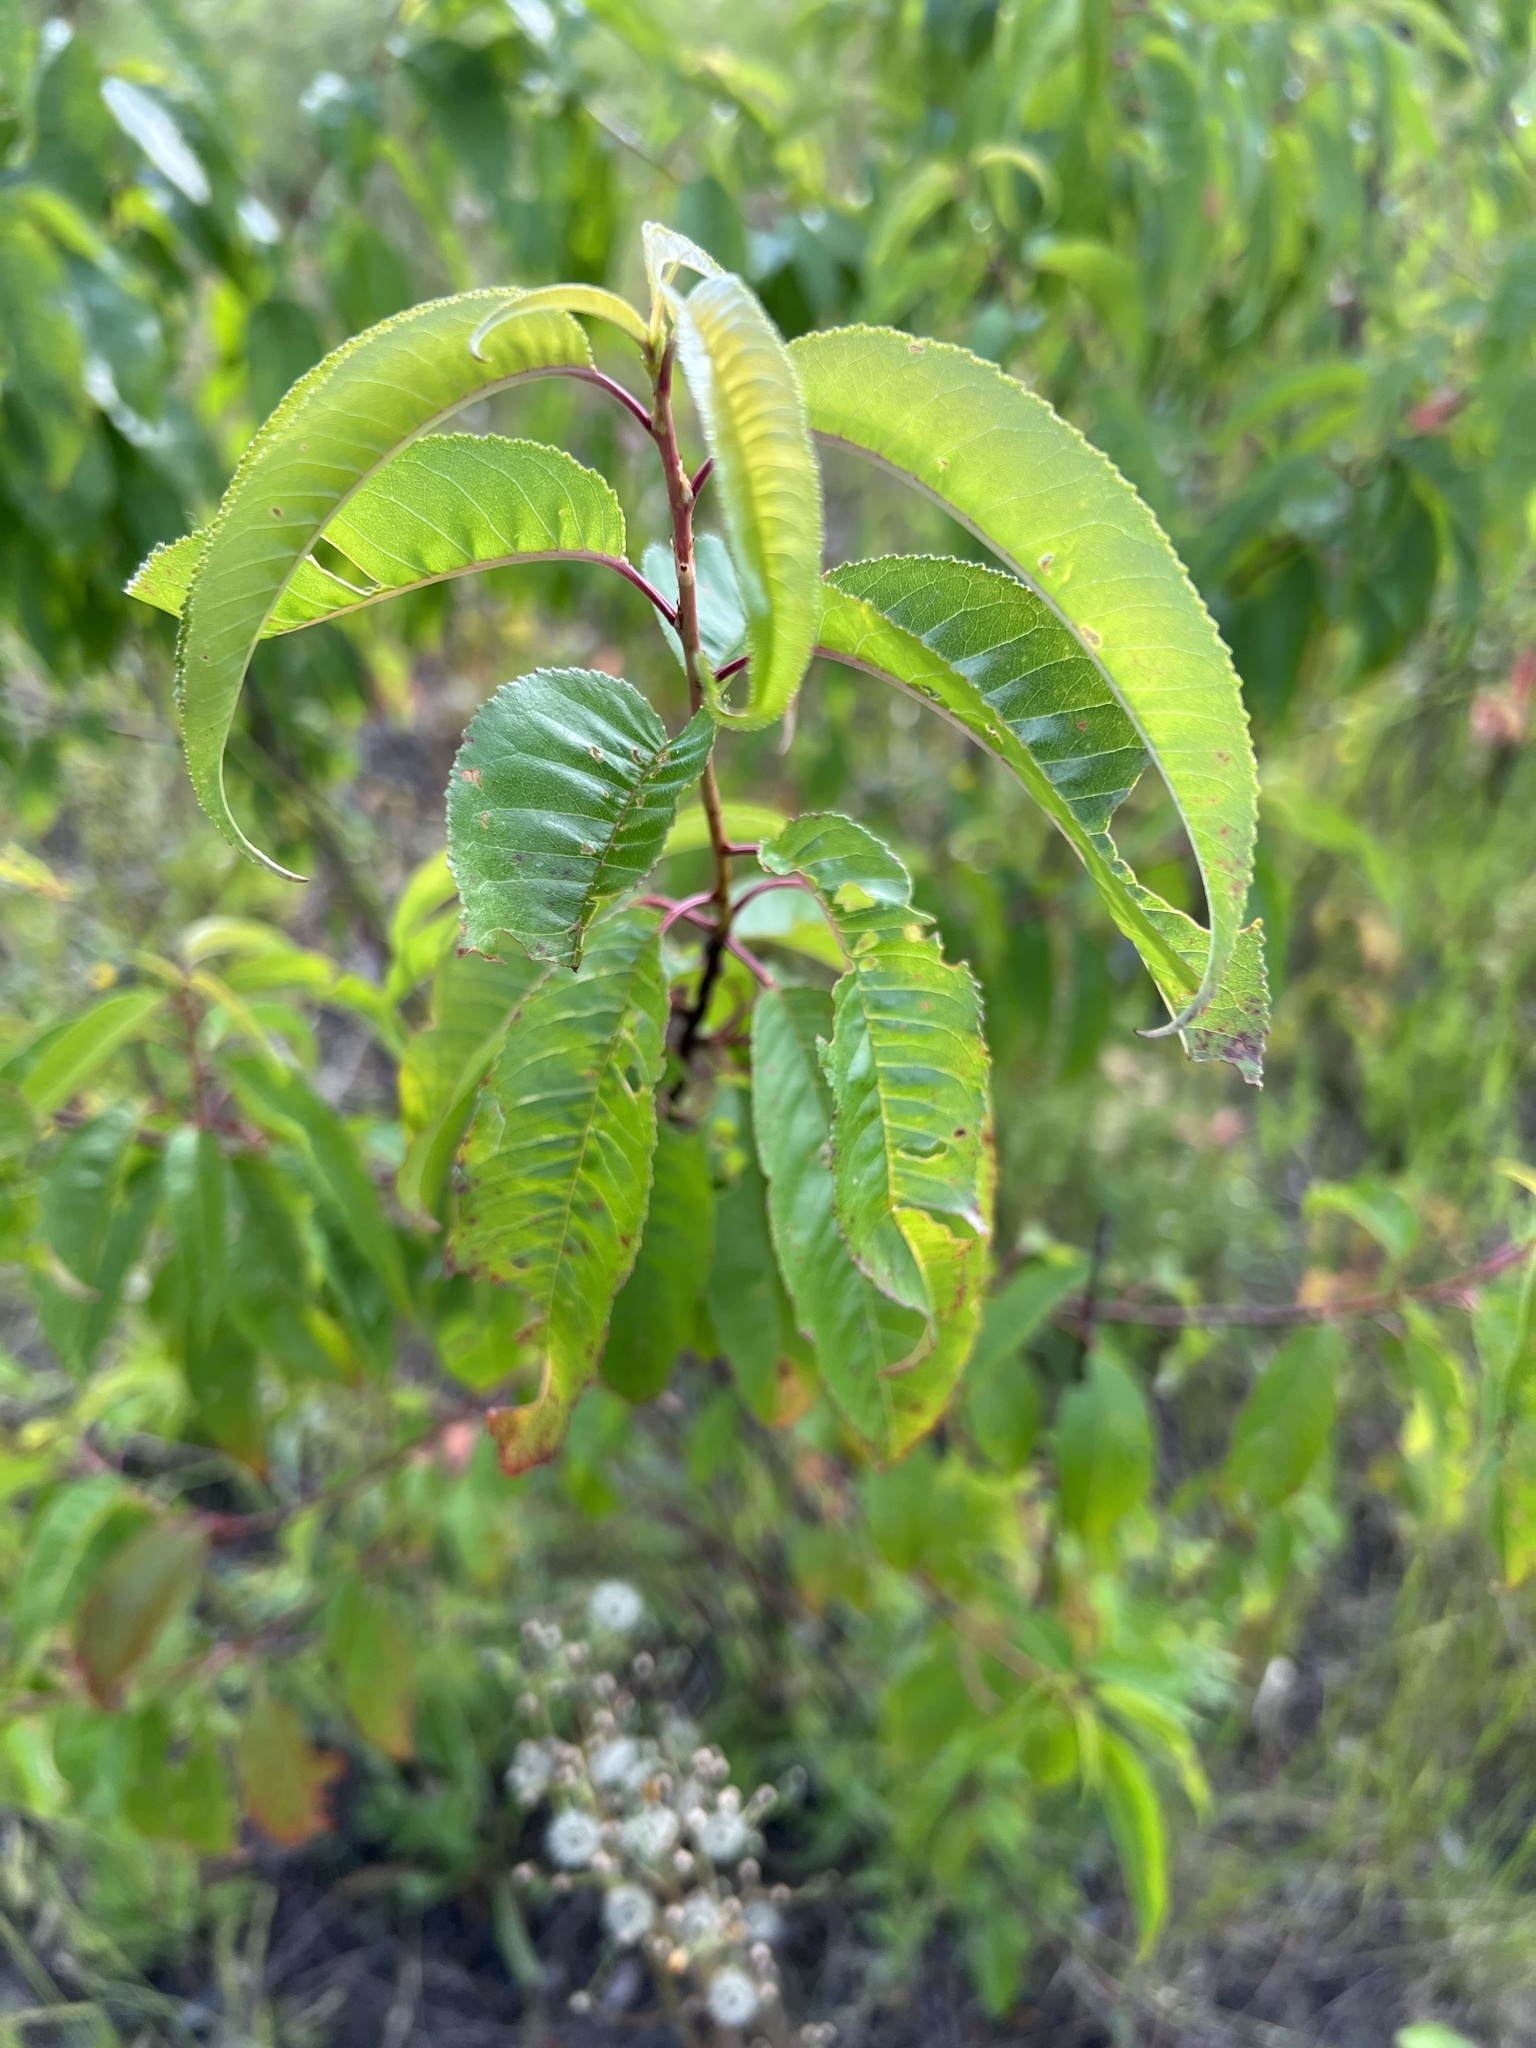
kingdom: Plantae
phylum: Tracheophyta
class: Magnoliopsida
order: Rosales
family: Rosaceae
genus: Prunus
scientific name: Prunus pensylvanica
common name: Pin cherry
